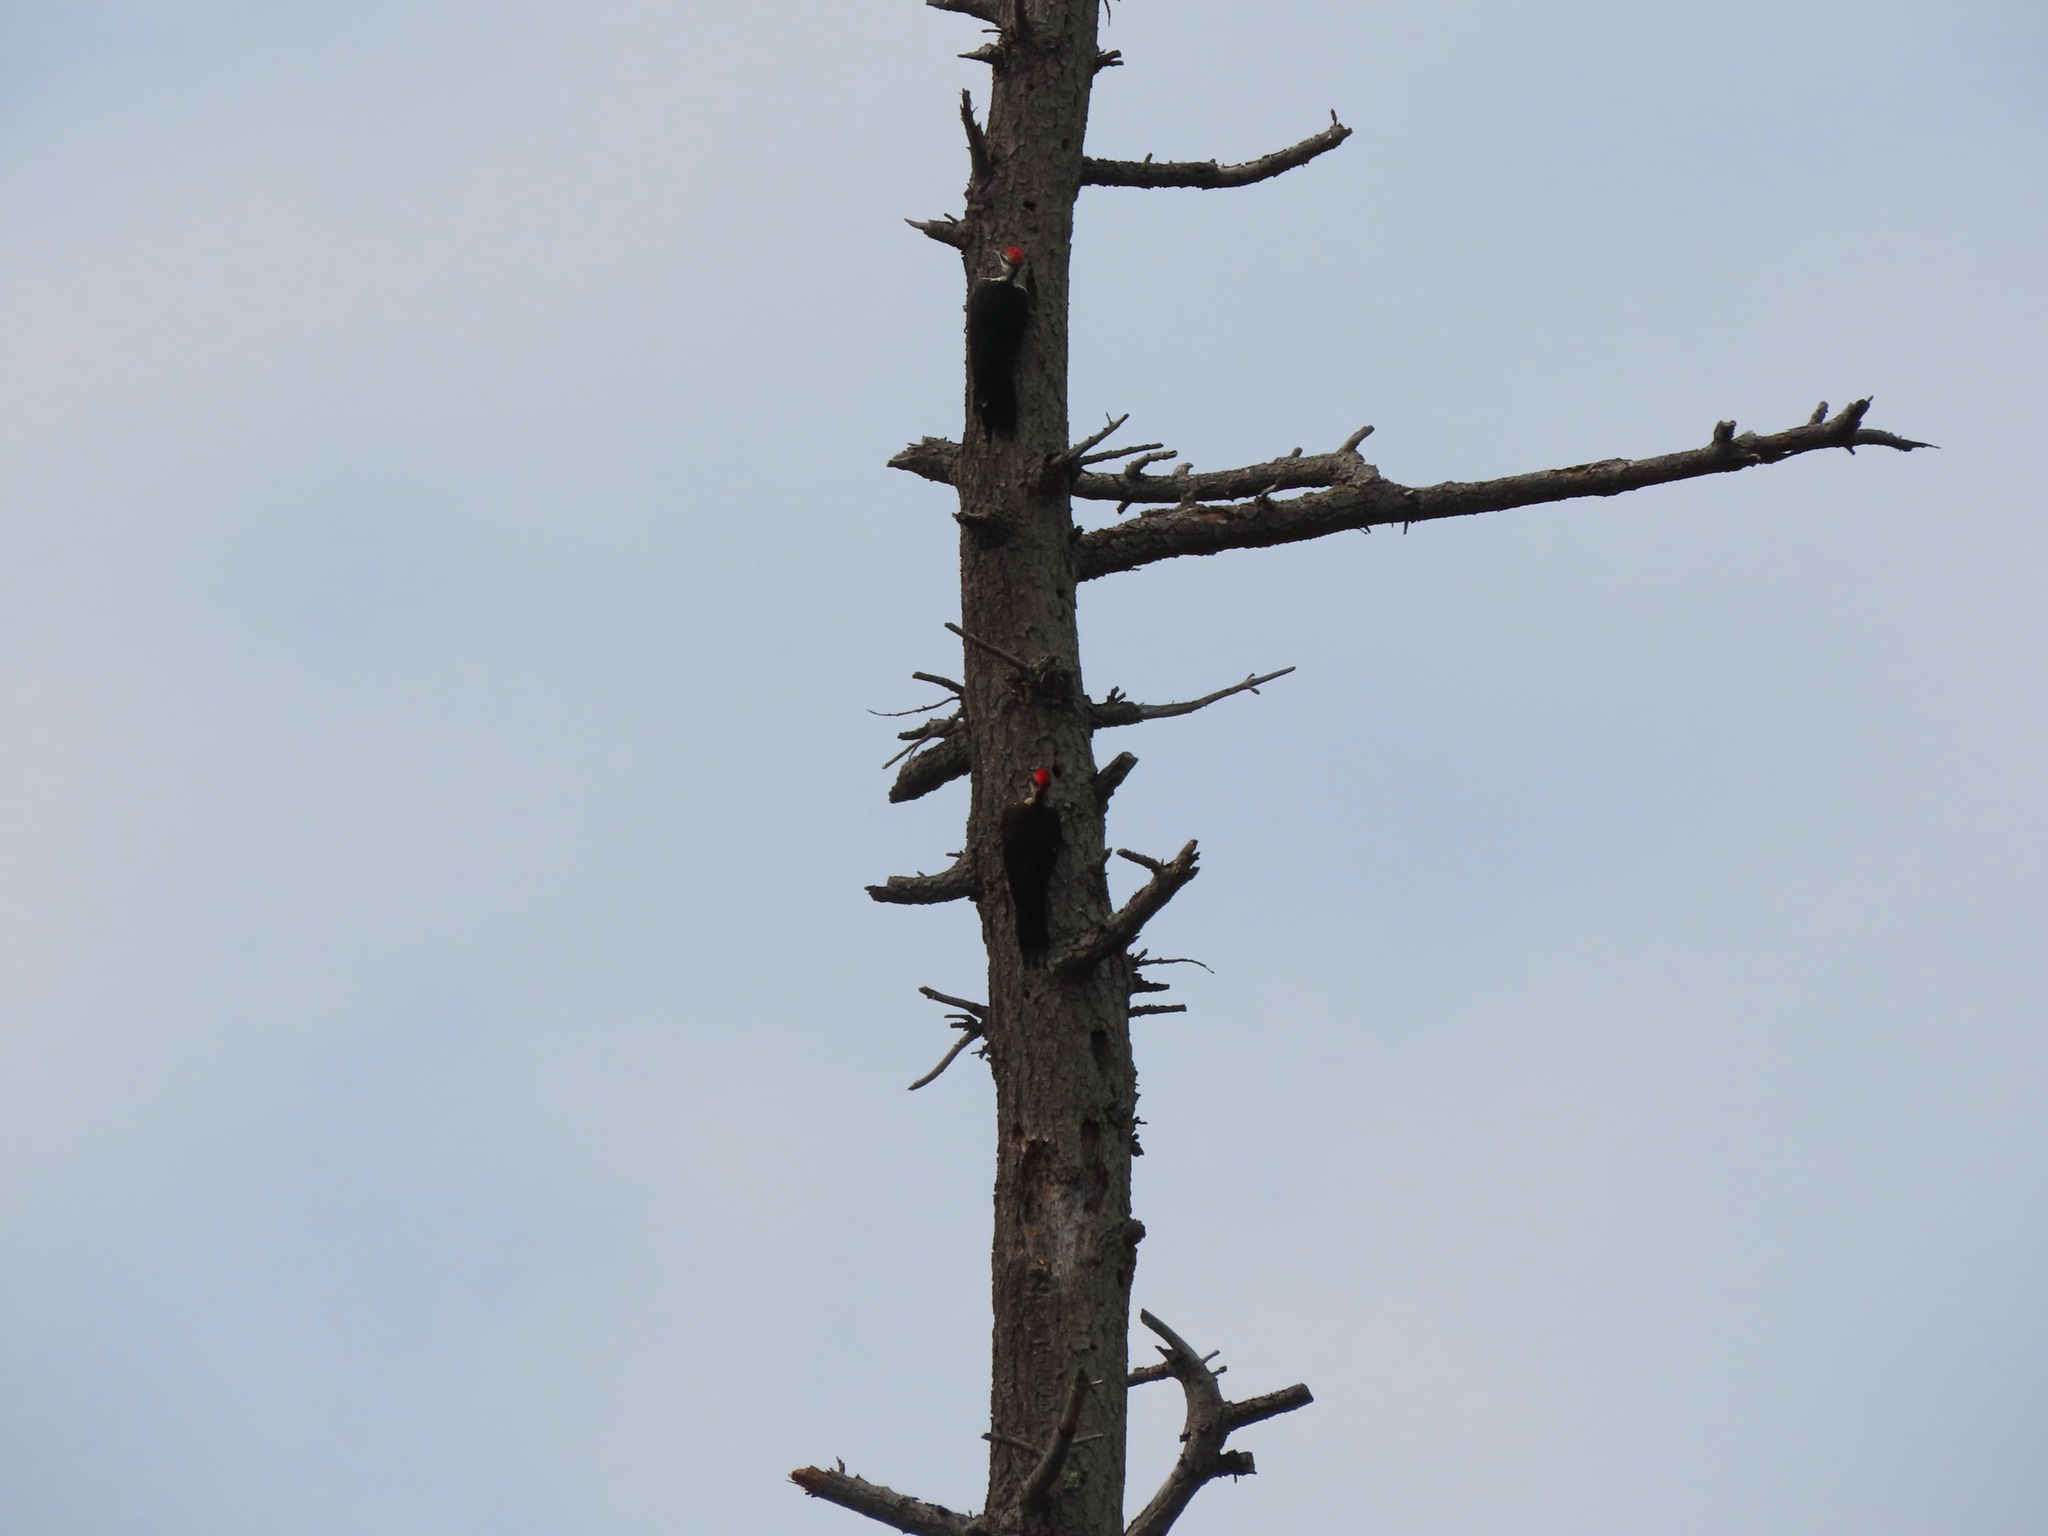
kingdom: Animalia
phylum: Chordata
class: Aves
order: Piciformes
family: Picidae
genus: Dryocopus
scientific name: Dryocopus pileatus
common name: Pileated woodpecker
